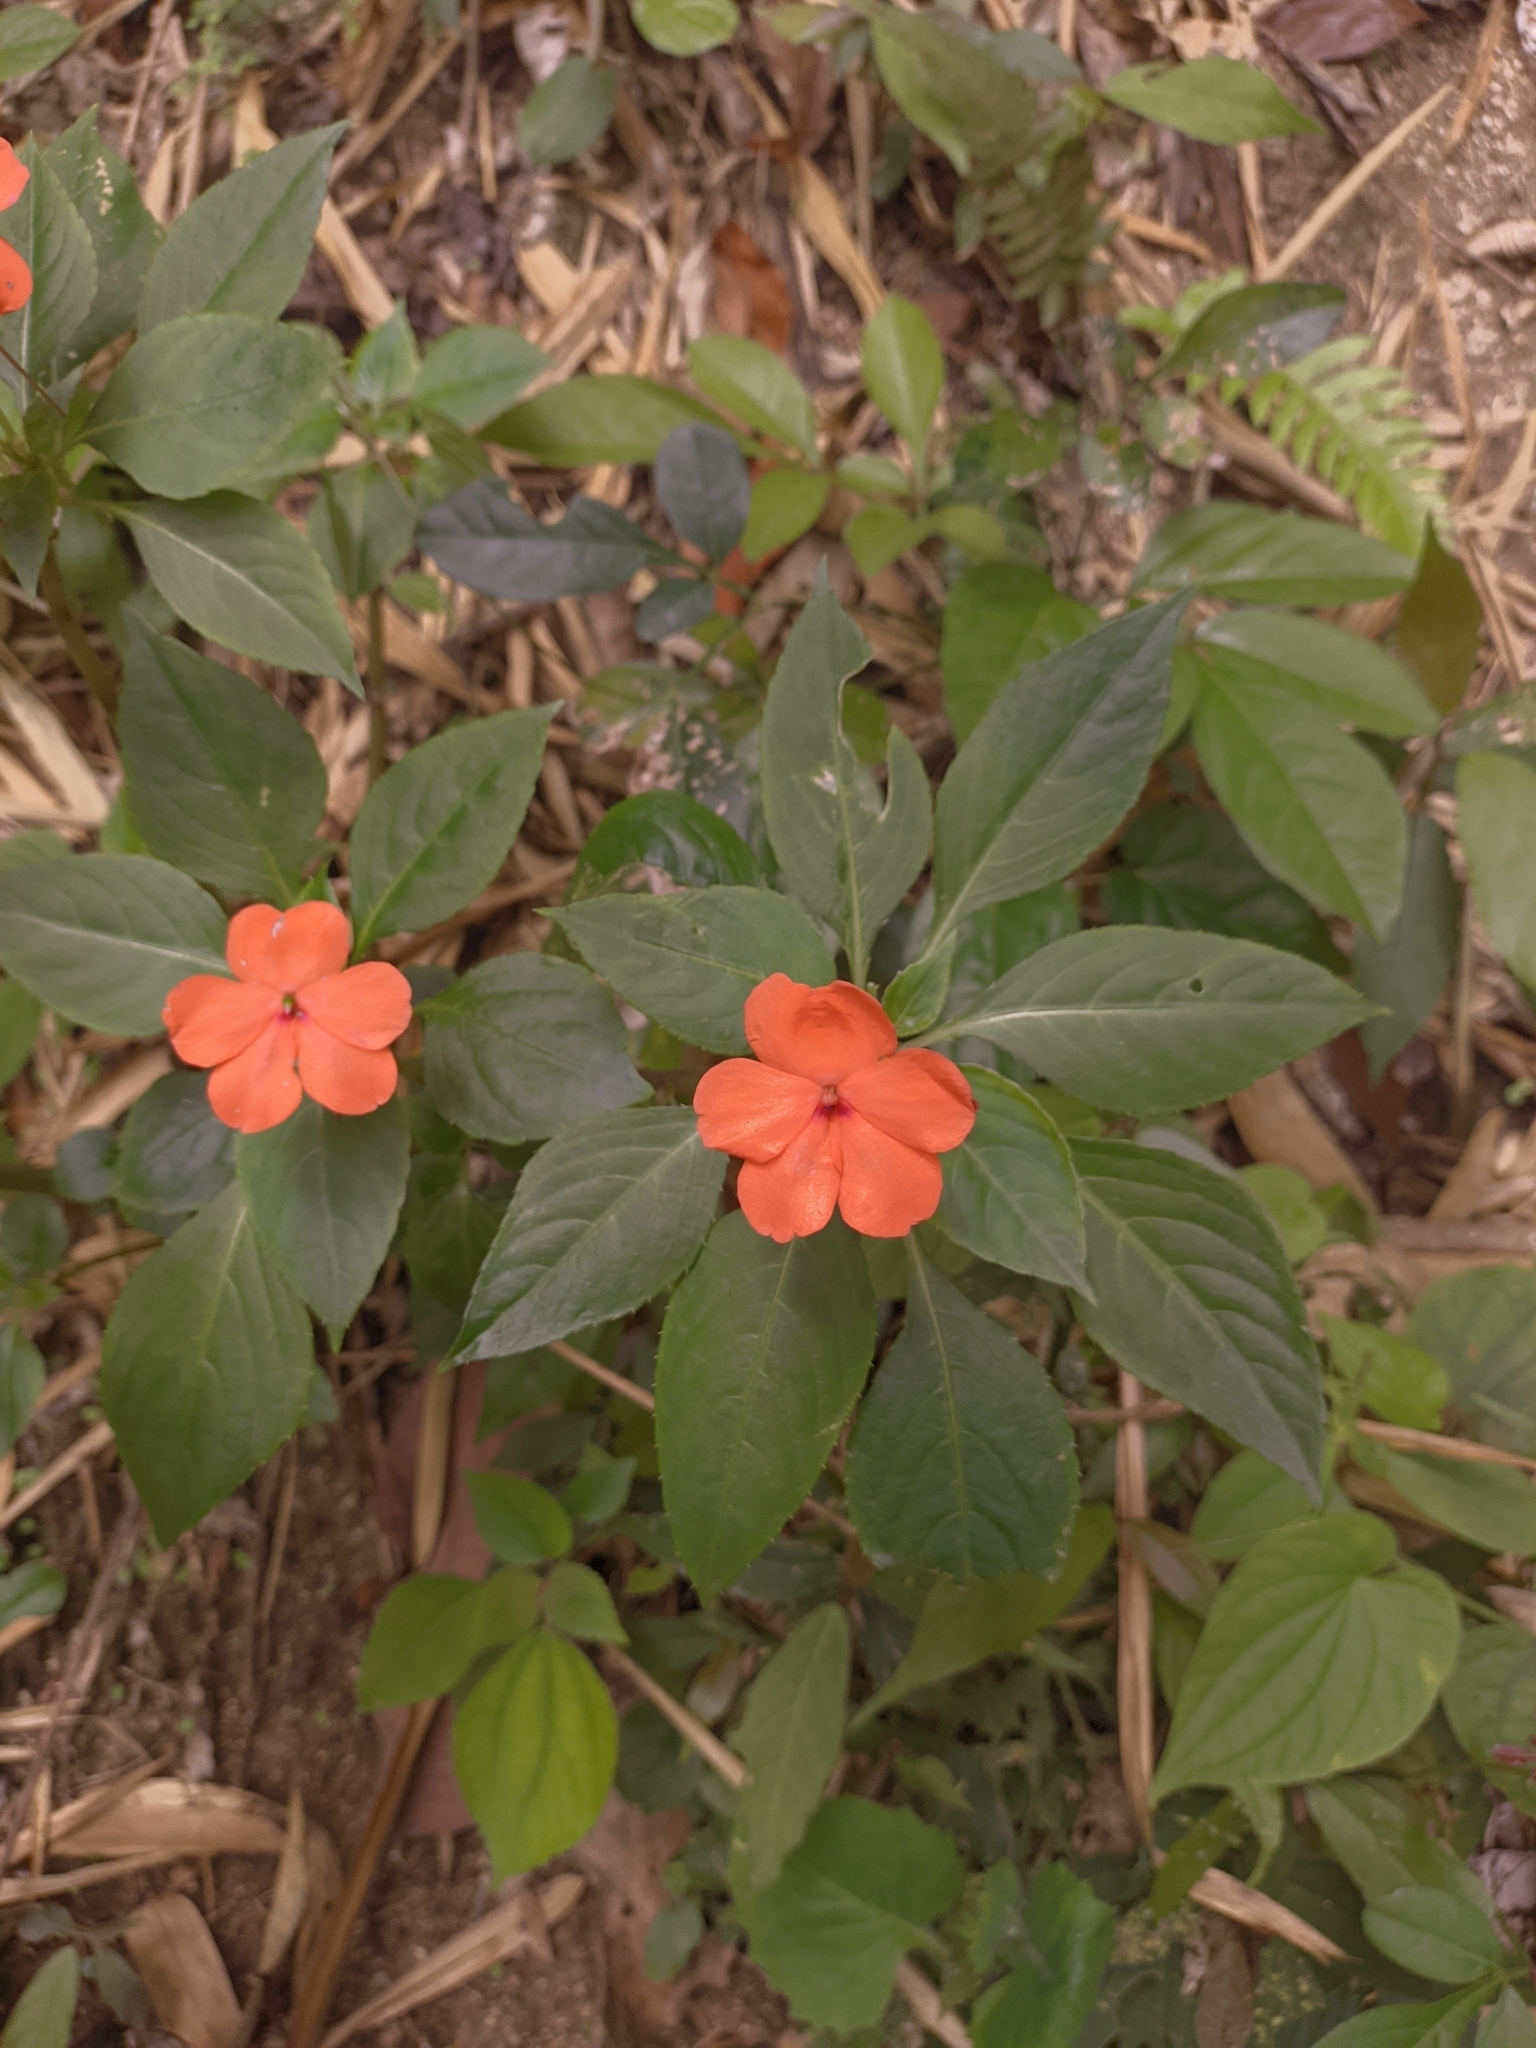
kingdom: Plantae
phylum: Tracheophyta
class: Magnoliopsida
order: Ericales
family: Balsaminaceae
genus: Impatiens
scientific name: Impatiens walleriana
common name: Buzzy lizzy
